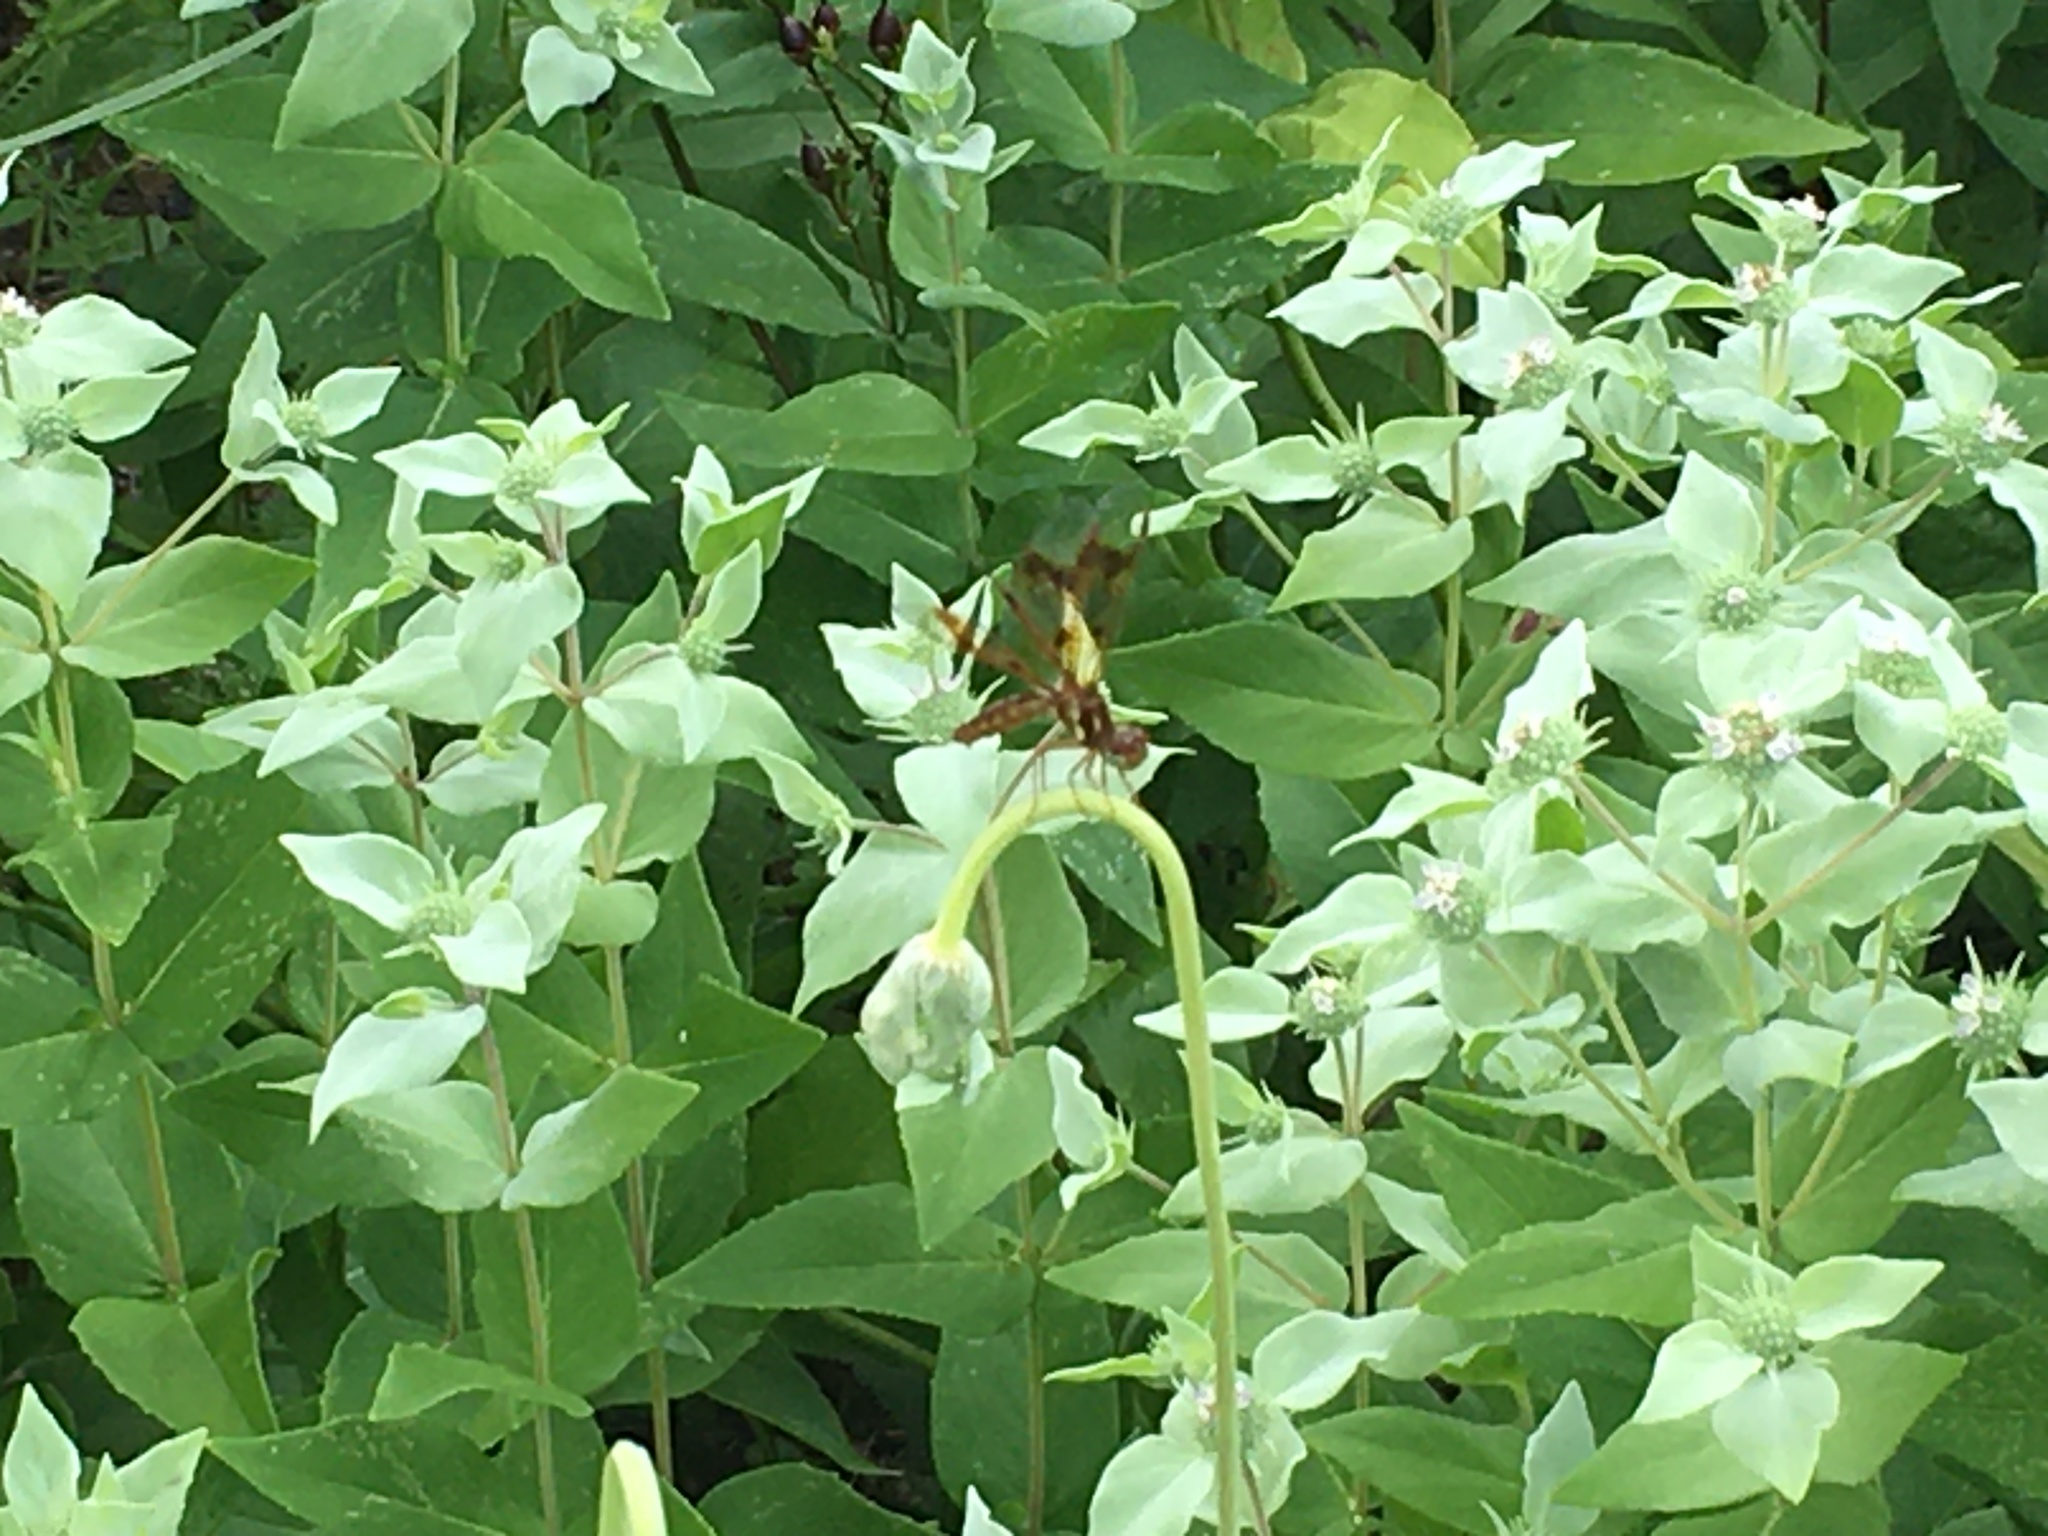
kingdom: Animalia
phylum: Arthropoda
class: Insecta
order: Odonata
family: Libellulidae
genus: Perithemis
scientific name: Perithemis tenera
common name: Eastern amberwing
